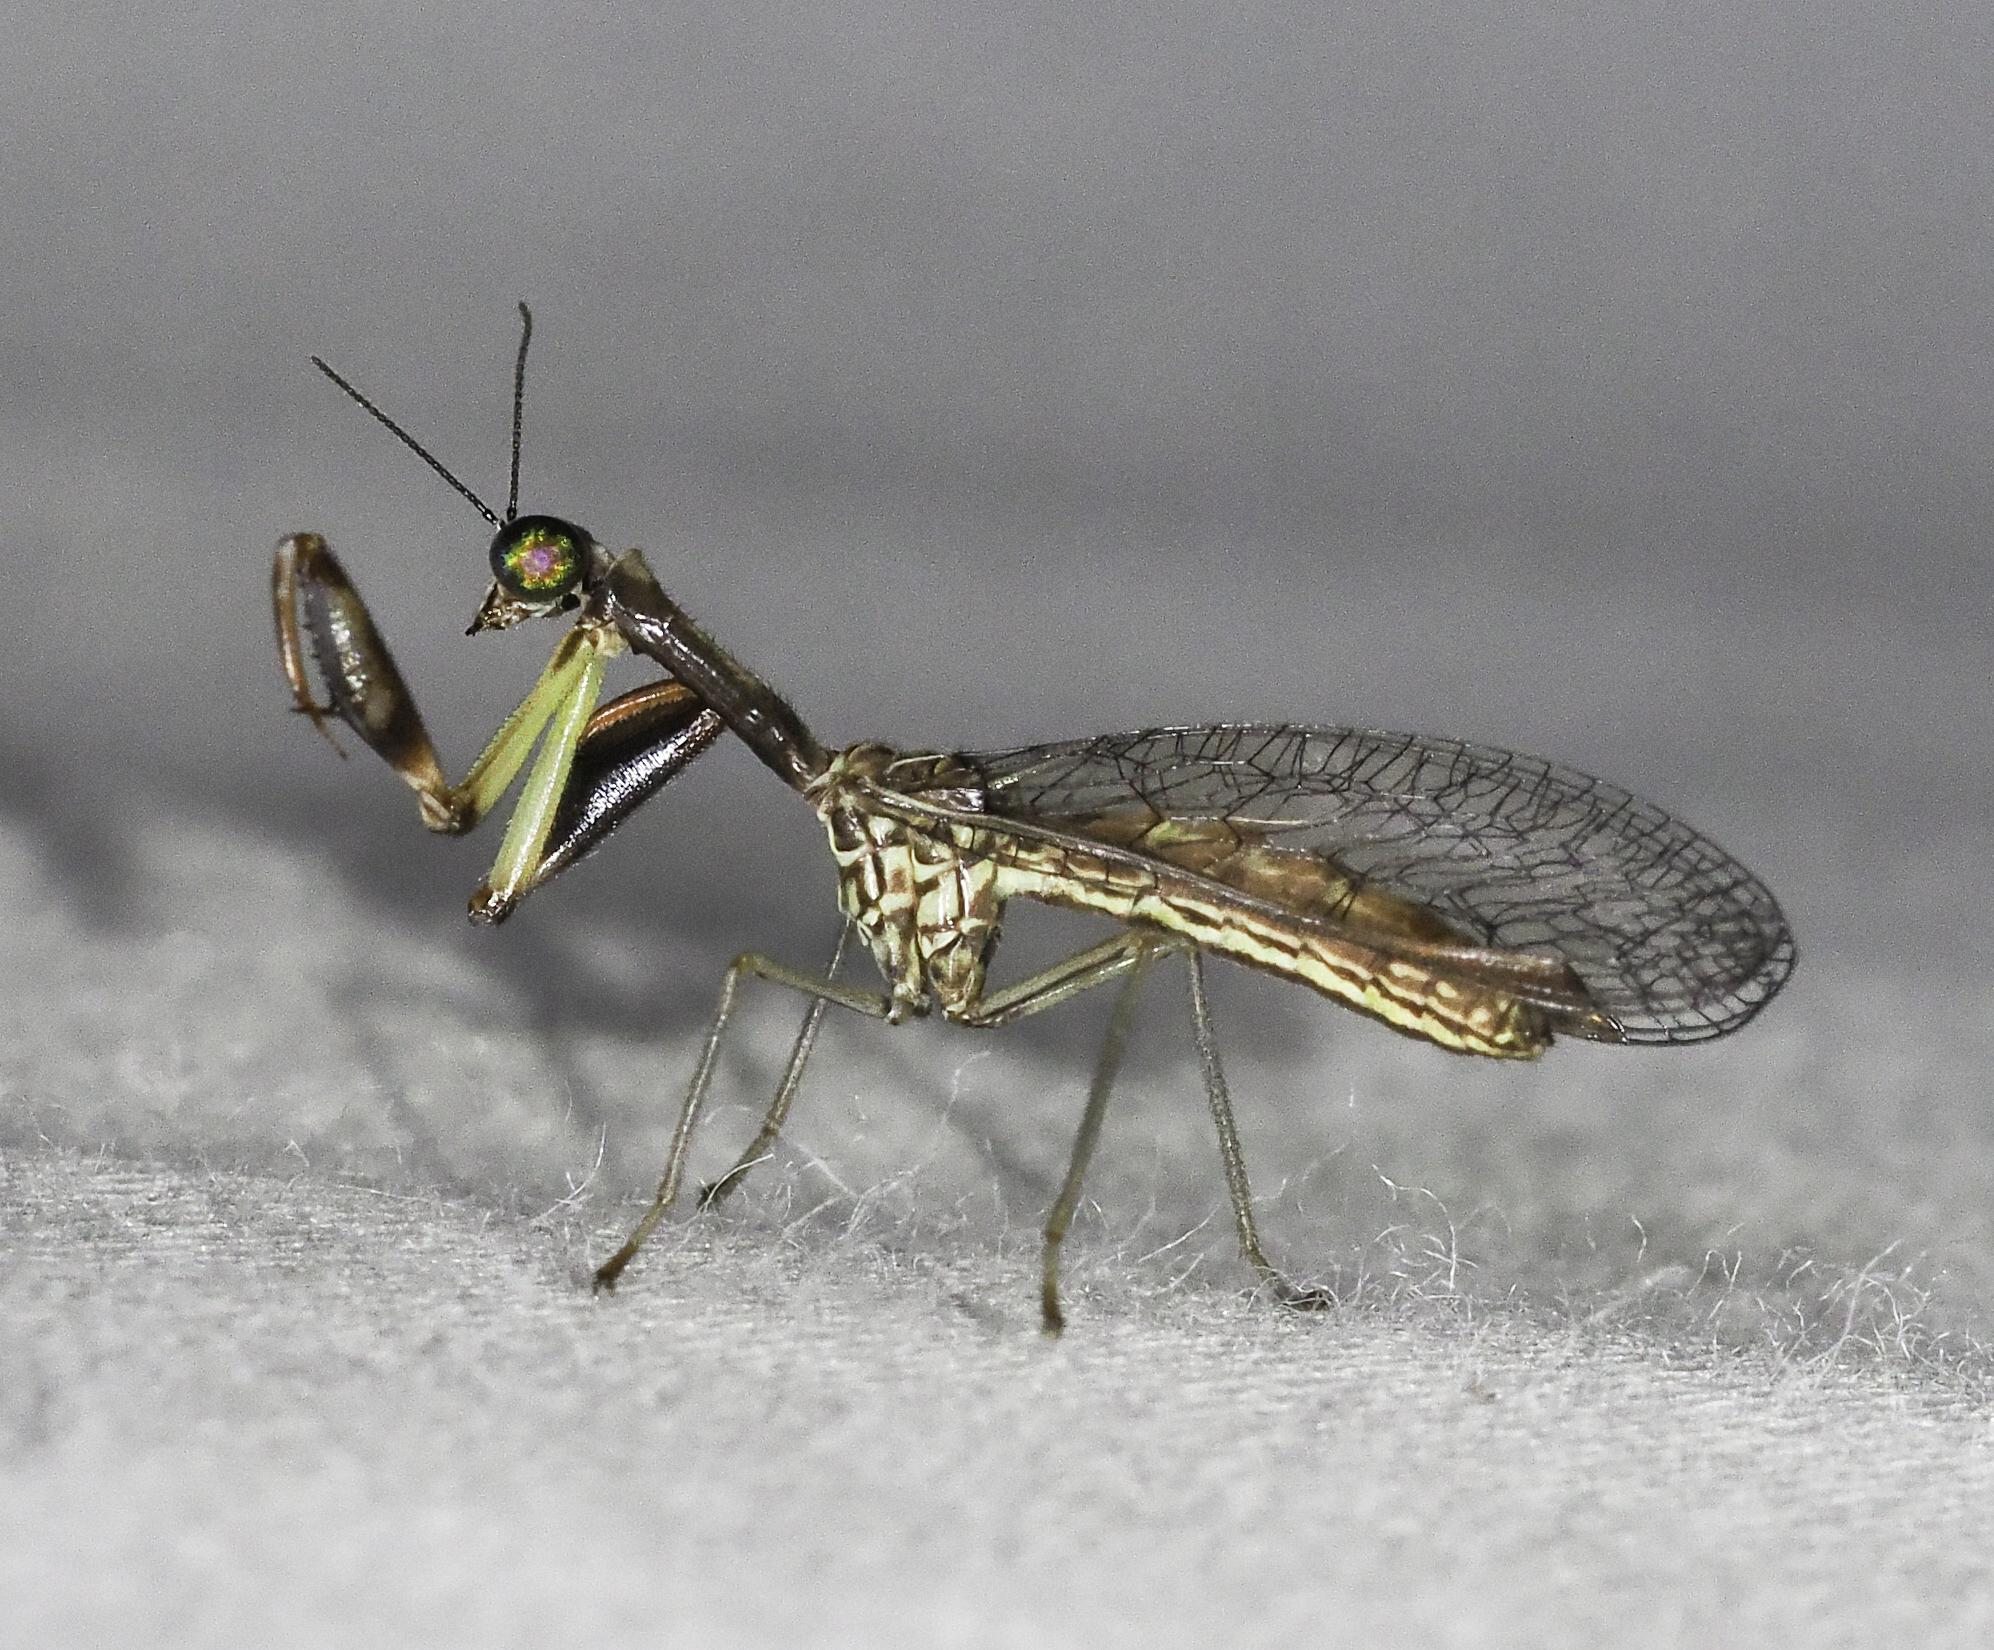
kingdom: Animalia
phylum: Arthropoda
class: Insecta
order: Neuroptera
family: Mantispidae
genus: Leptomantispa
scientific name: Leptomantispa pulchella
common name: Stevens's mantidfly
